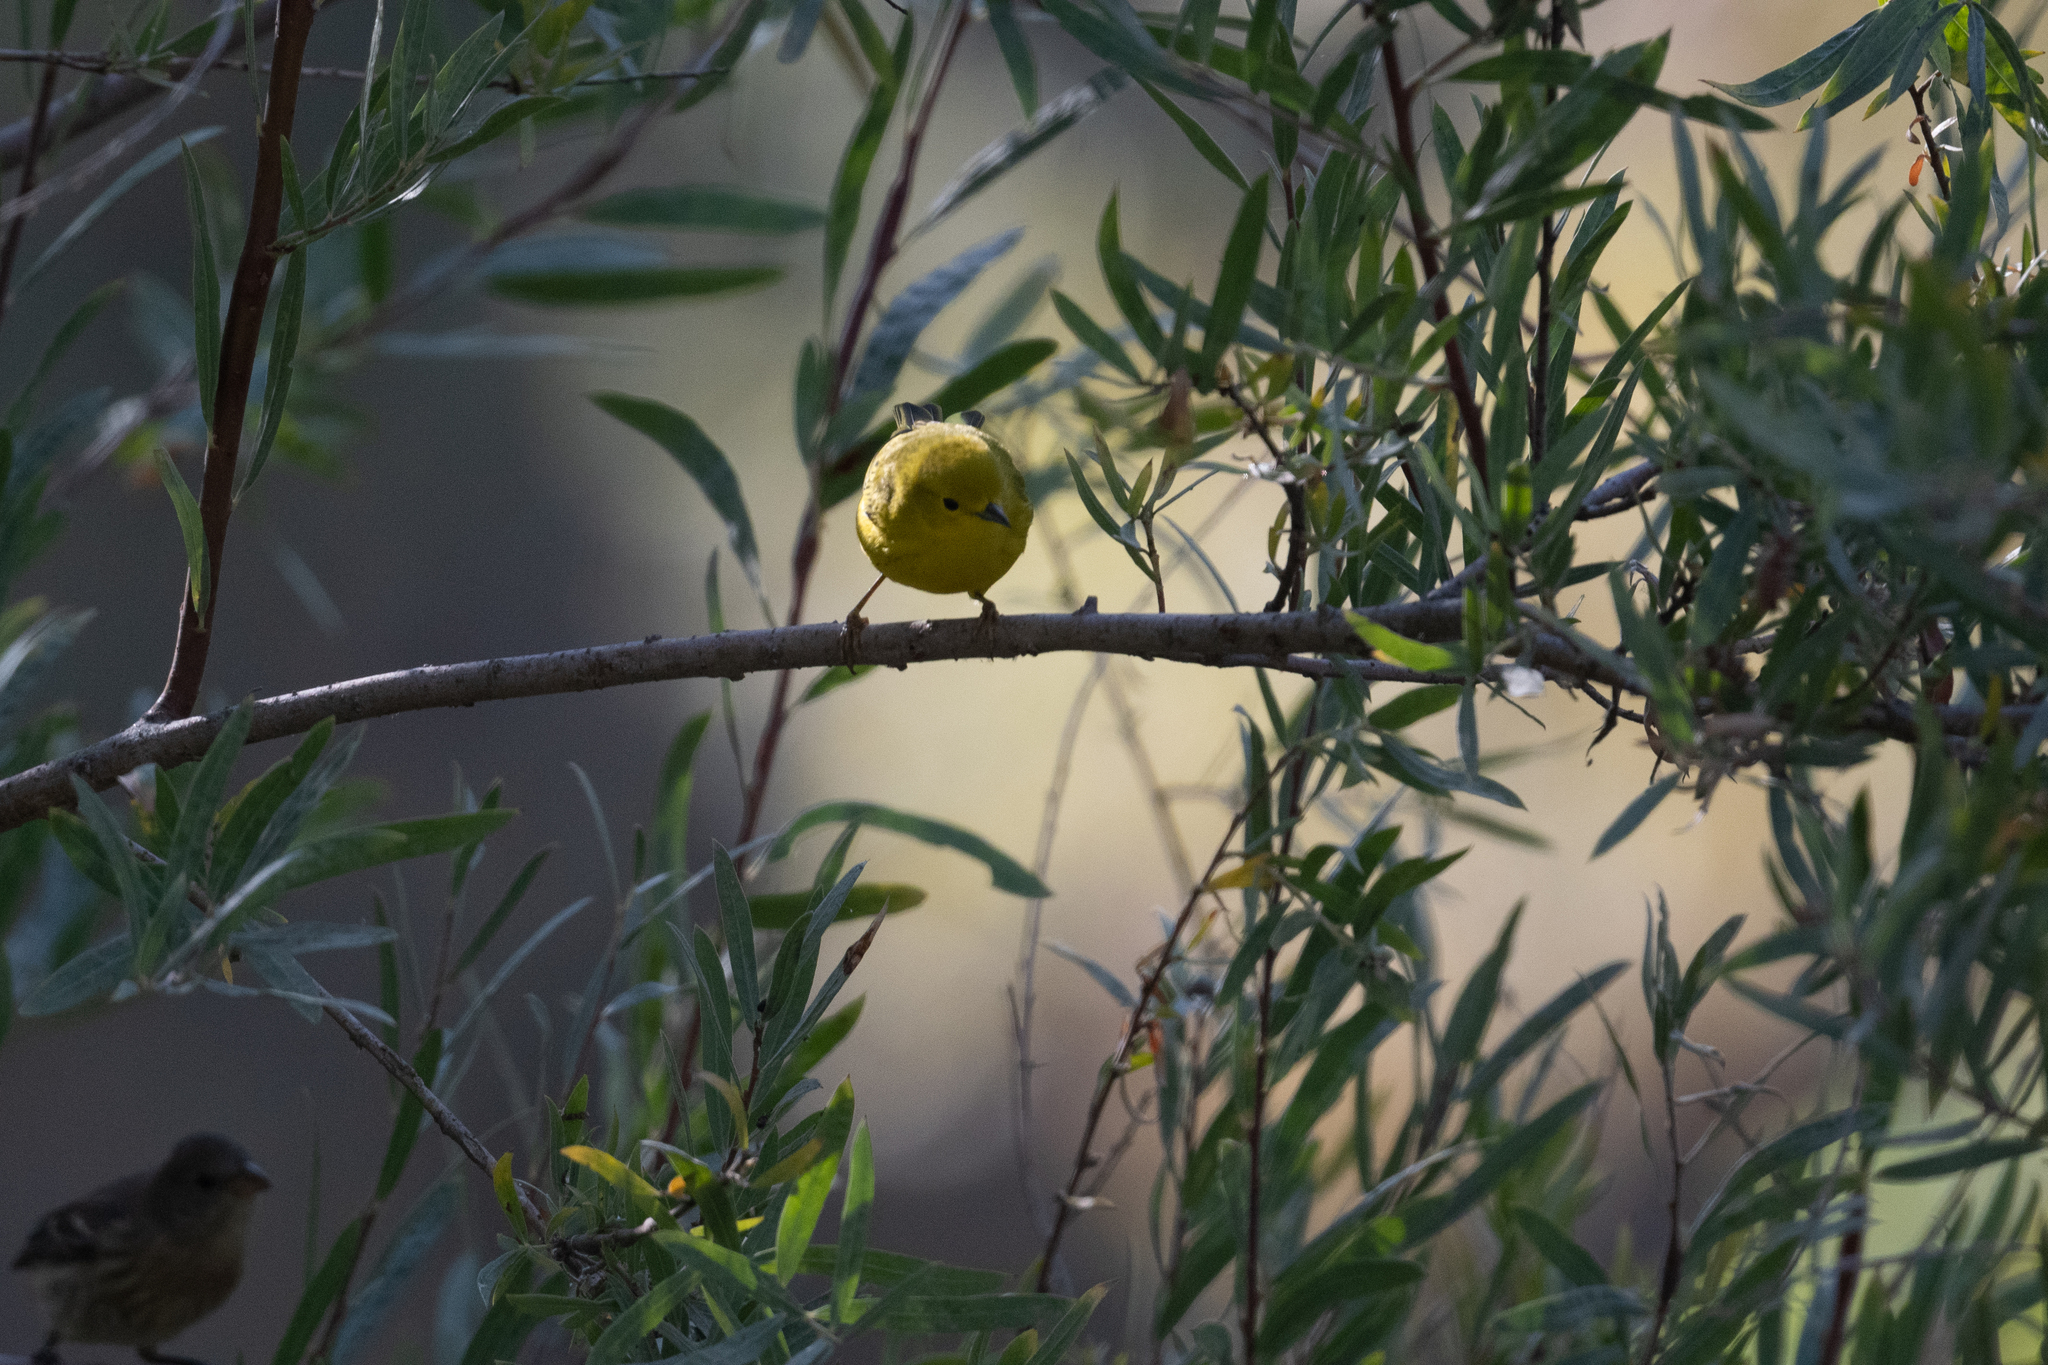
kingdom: Animalia
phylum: Chordata
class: Aves
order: Passeriformes
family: Parulidae
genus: Setophaga
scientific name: Setophaga petechia
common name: Yellow warbler
